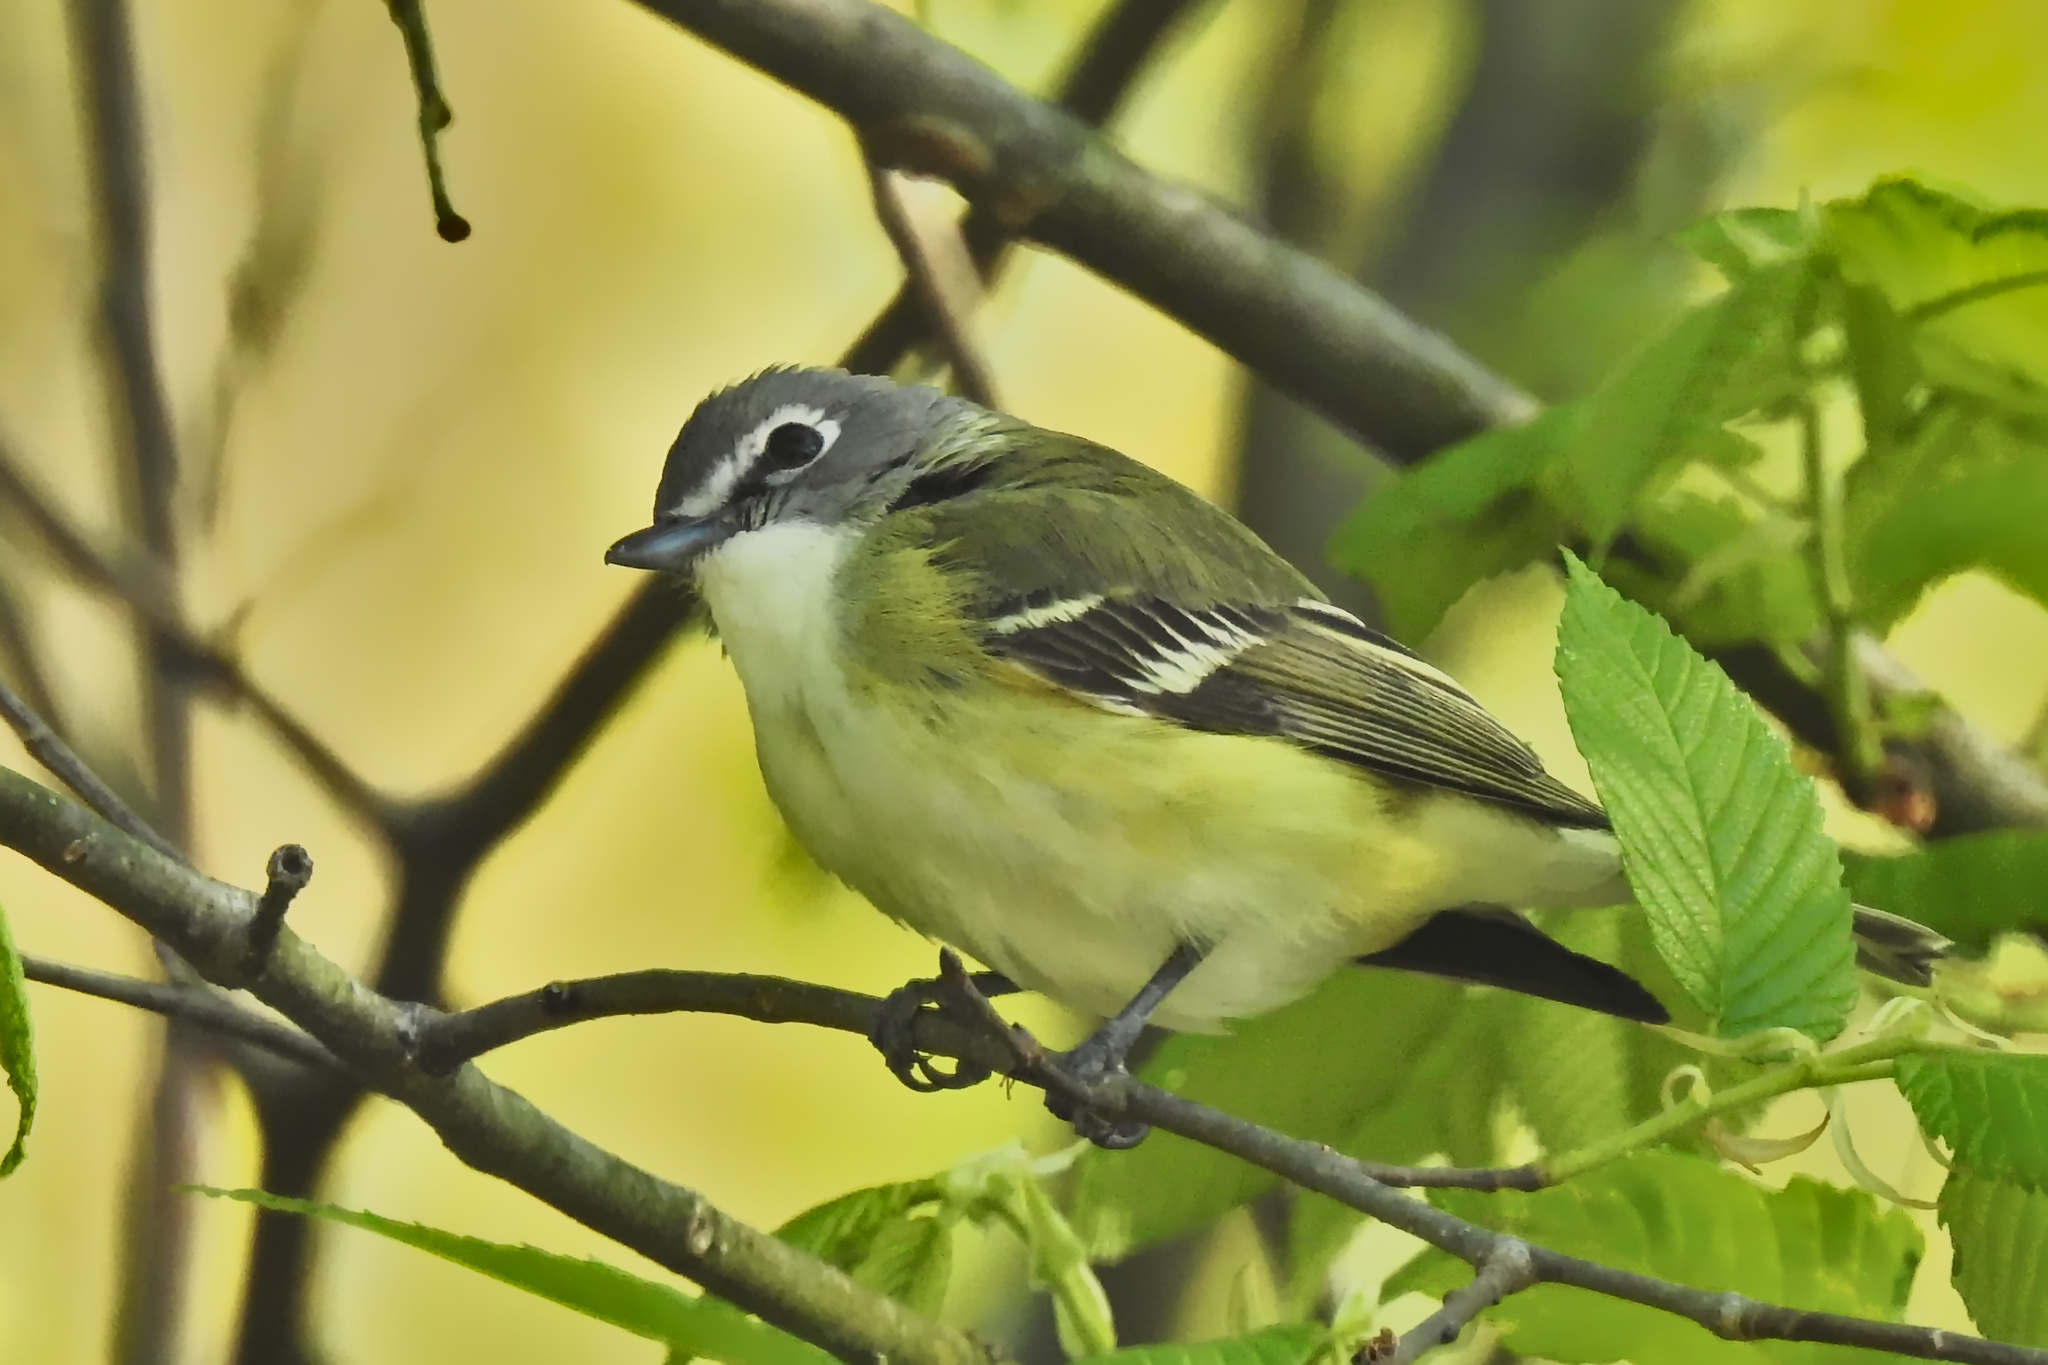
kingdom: Animalia
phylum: Chordata
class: Aves
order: Passeriformes
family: Vireonidae
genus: Vireo
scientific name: Vireo solitarius
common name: Blue-headed vireo
